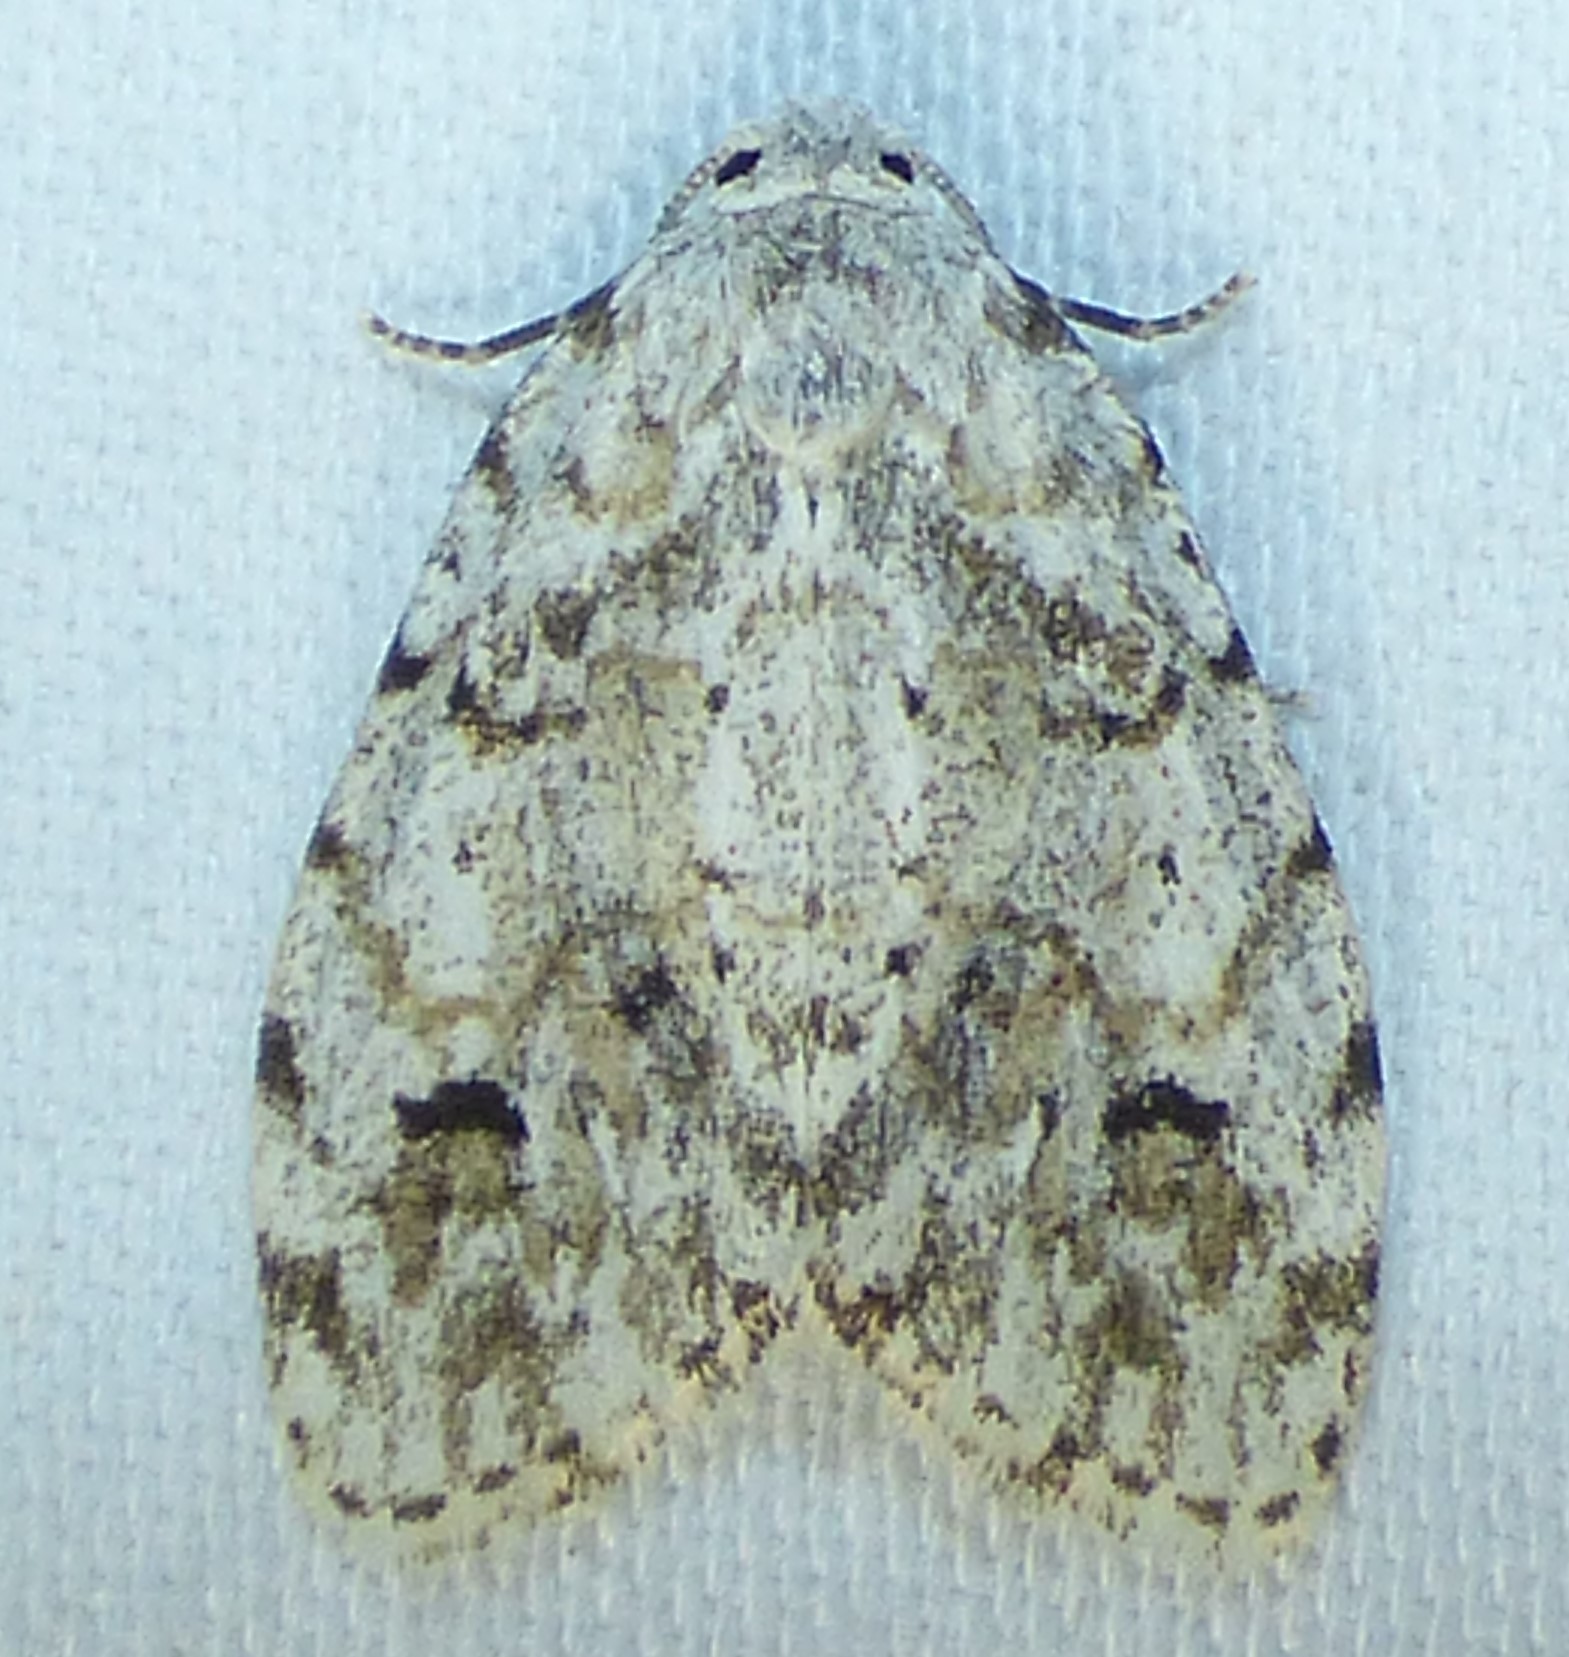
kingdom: Animalia
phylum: Arthropoda
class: Insecta
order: Lepidoptera
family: Erebidae
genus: Clemensia
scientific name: Clemensia albata
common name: Little white lichen moth
